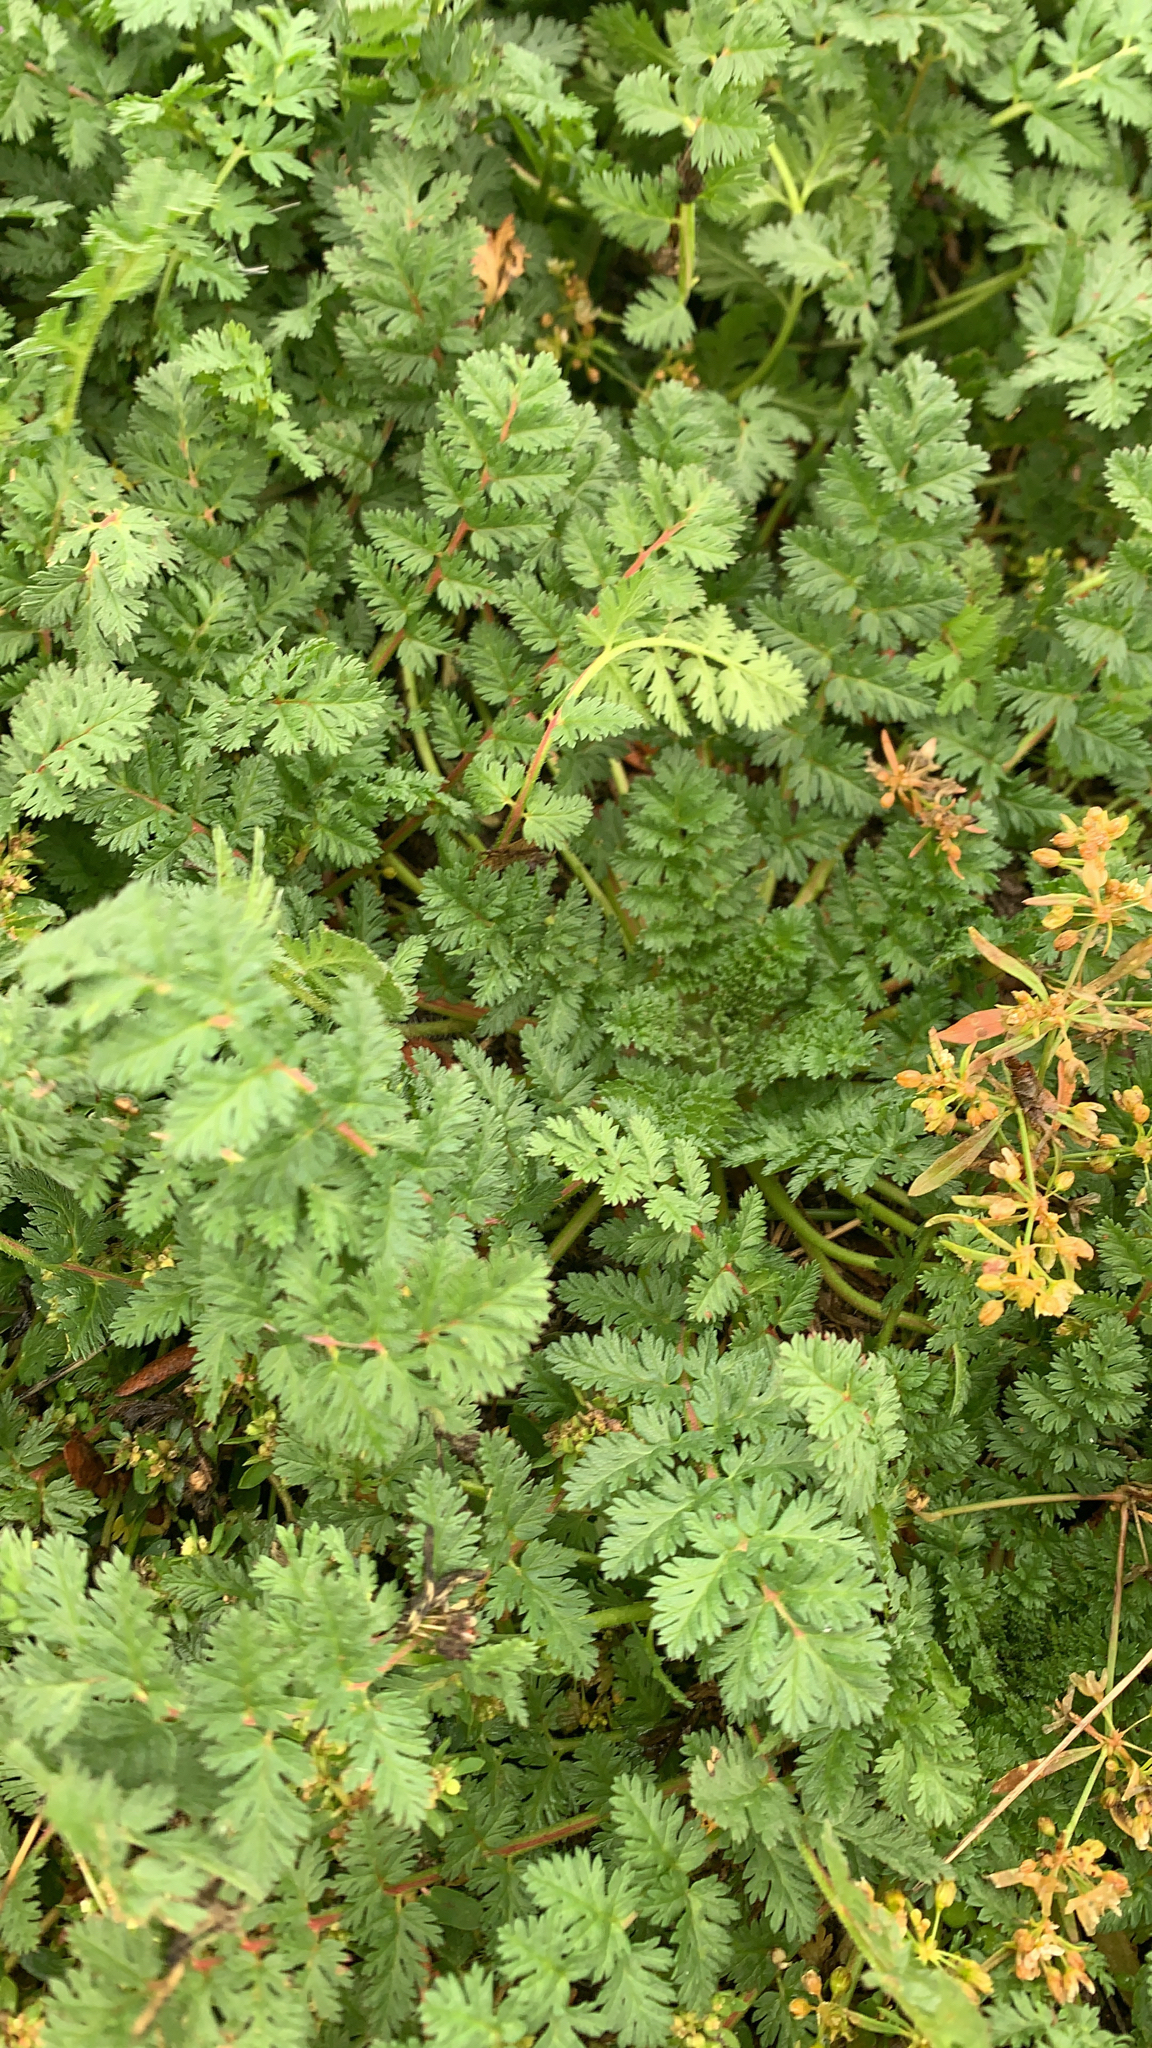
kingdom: Plantae
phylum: Tracheophyta
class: Magnoliopsida
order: Geraniales
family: Geraniaceae
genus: Erodium
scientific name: Erodium cicutarium
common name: Common stork's-bill
